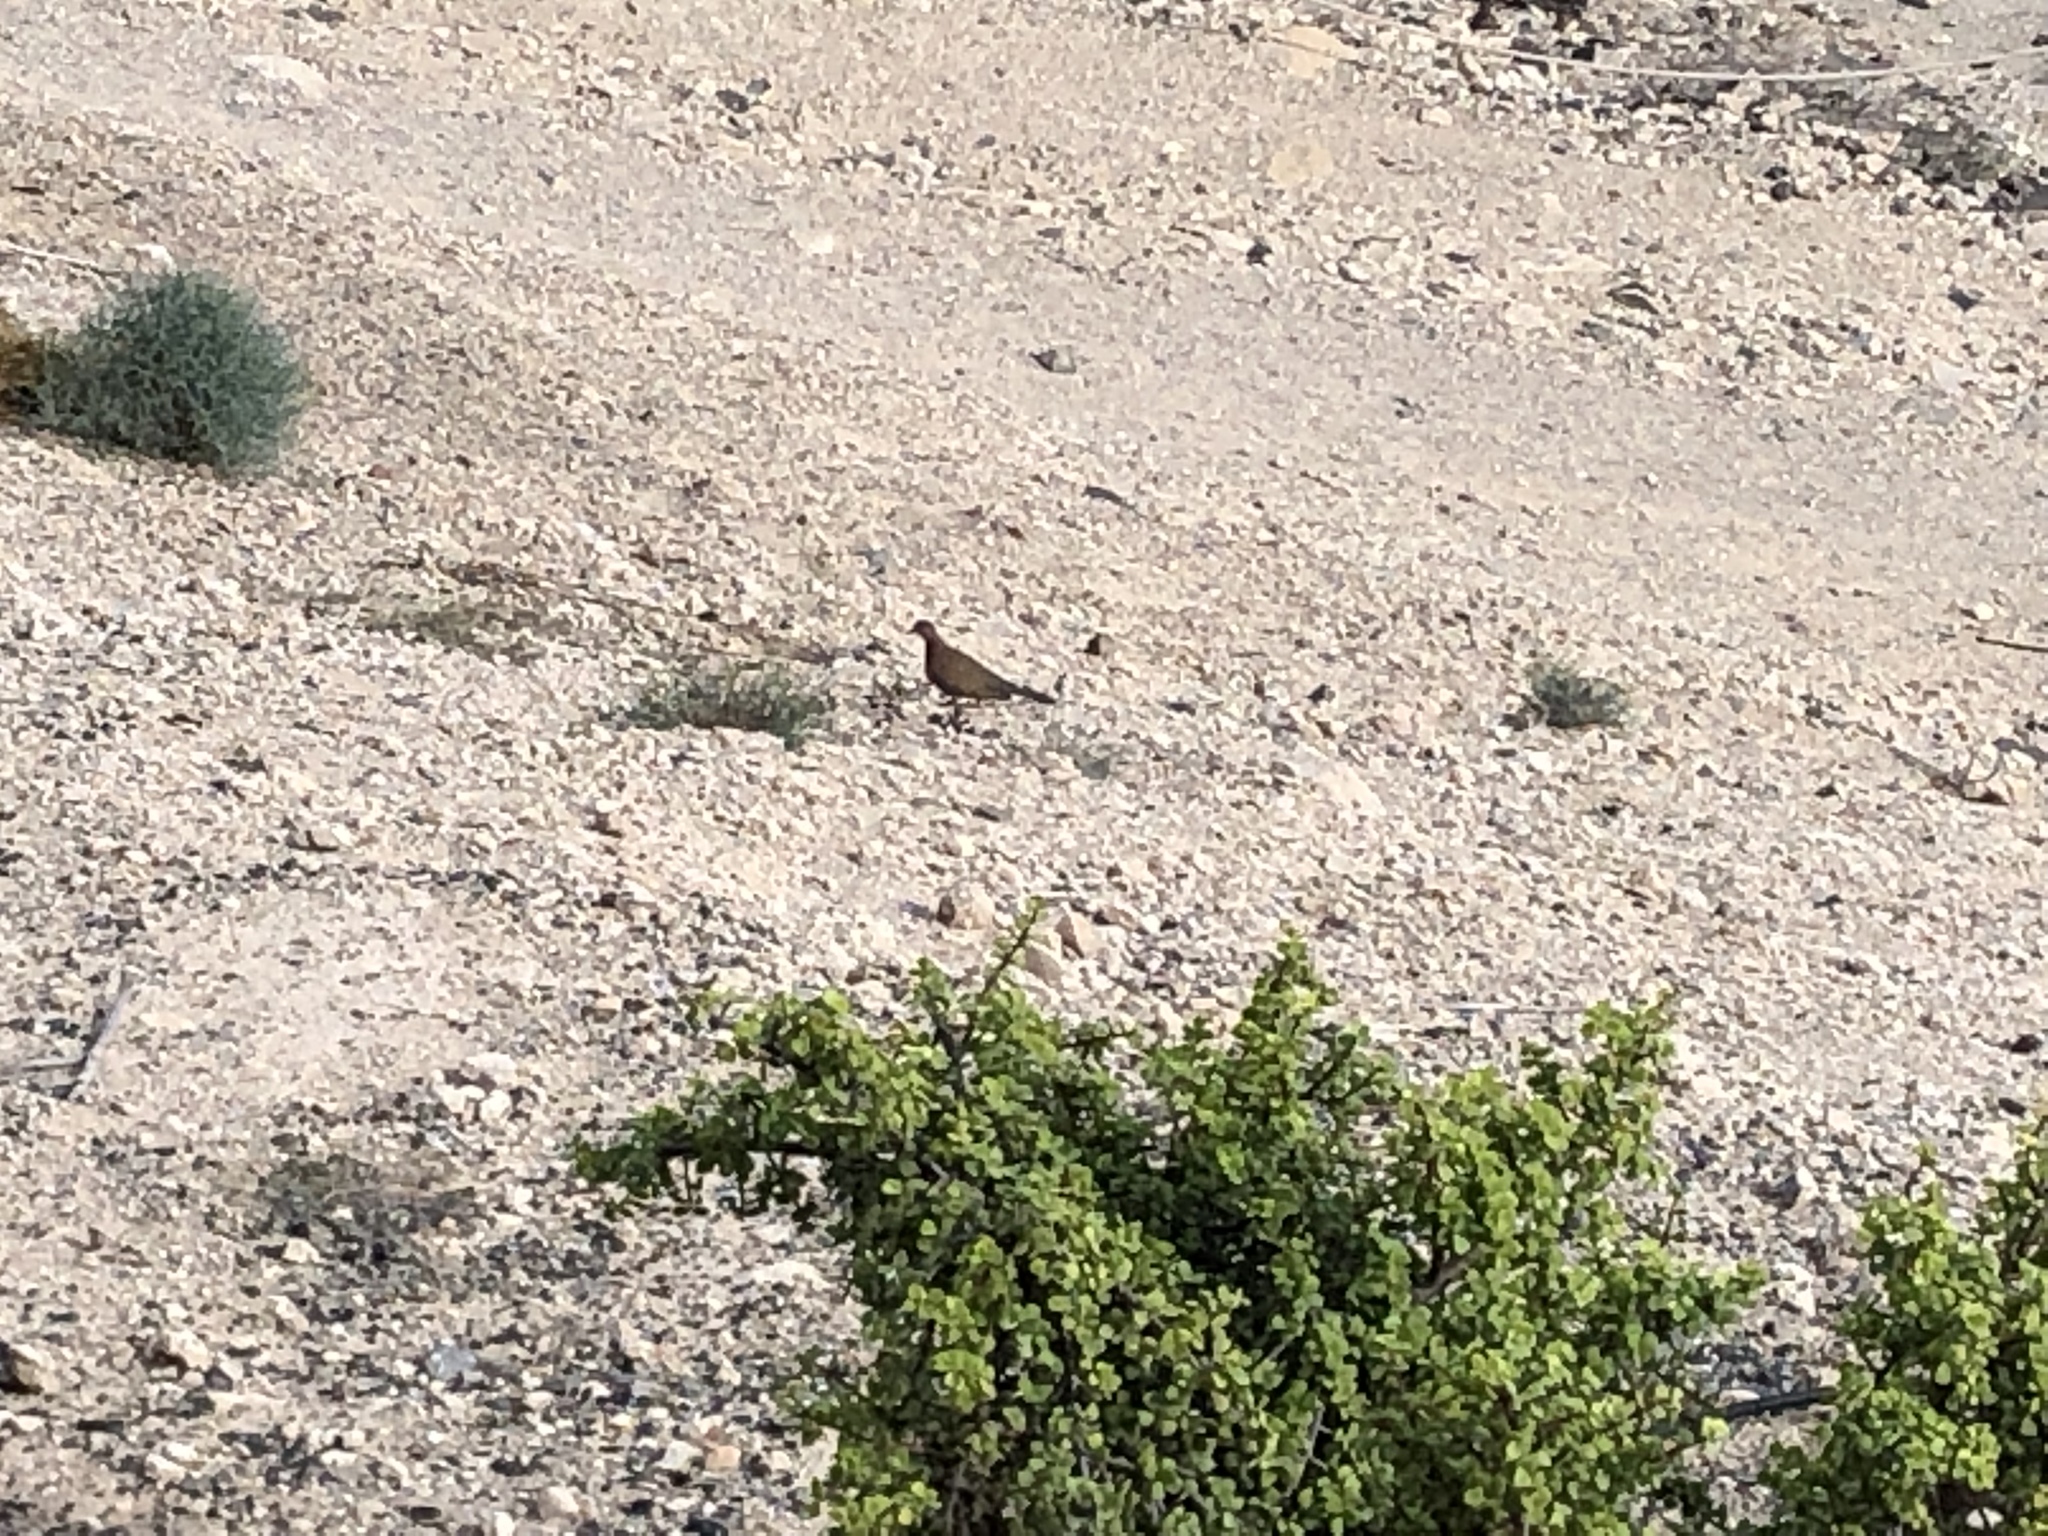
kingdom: Animalia
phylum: Chordata
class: Aves
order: Columbiformes
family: Columbidae
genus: Spilopelia
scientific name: Spilopelia senegalensis
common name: Laughing dove
